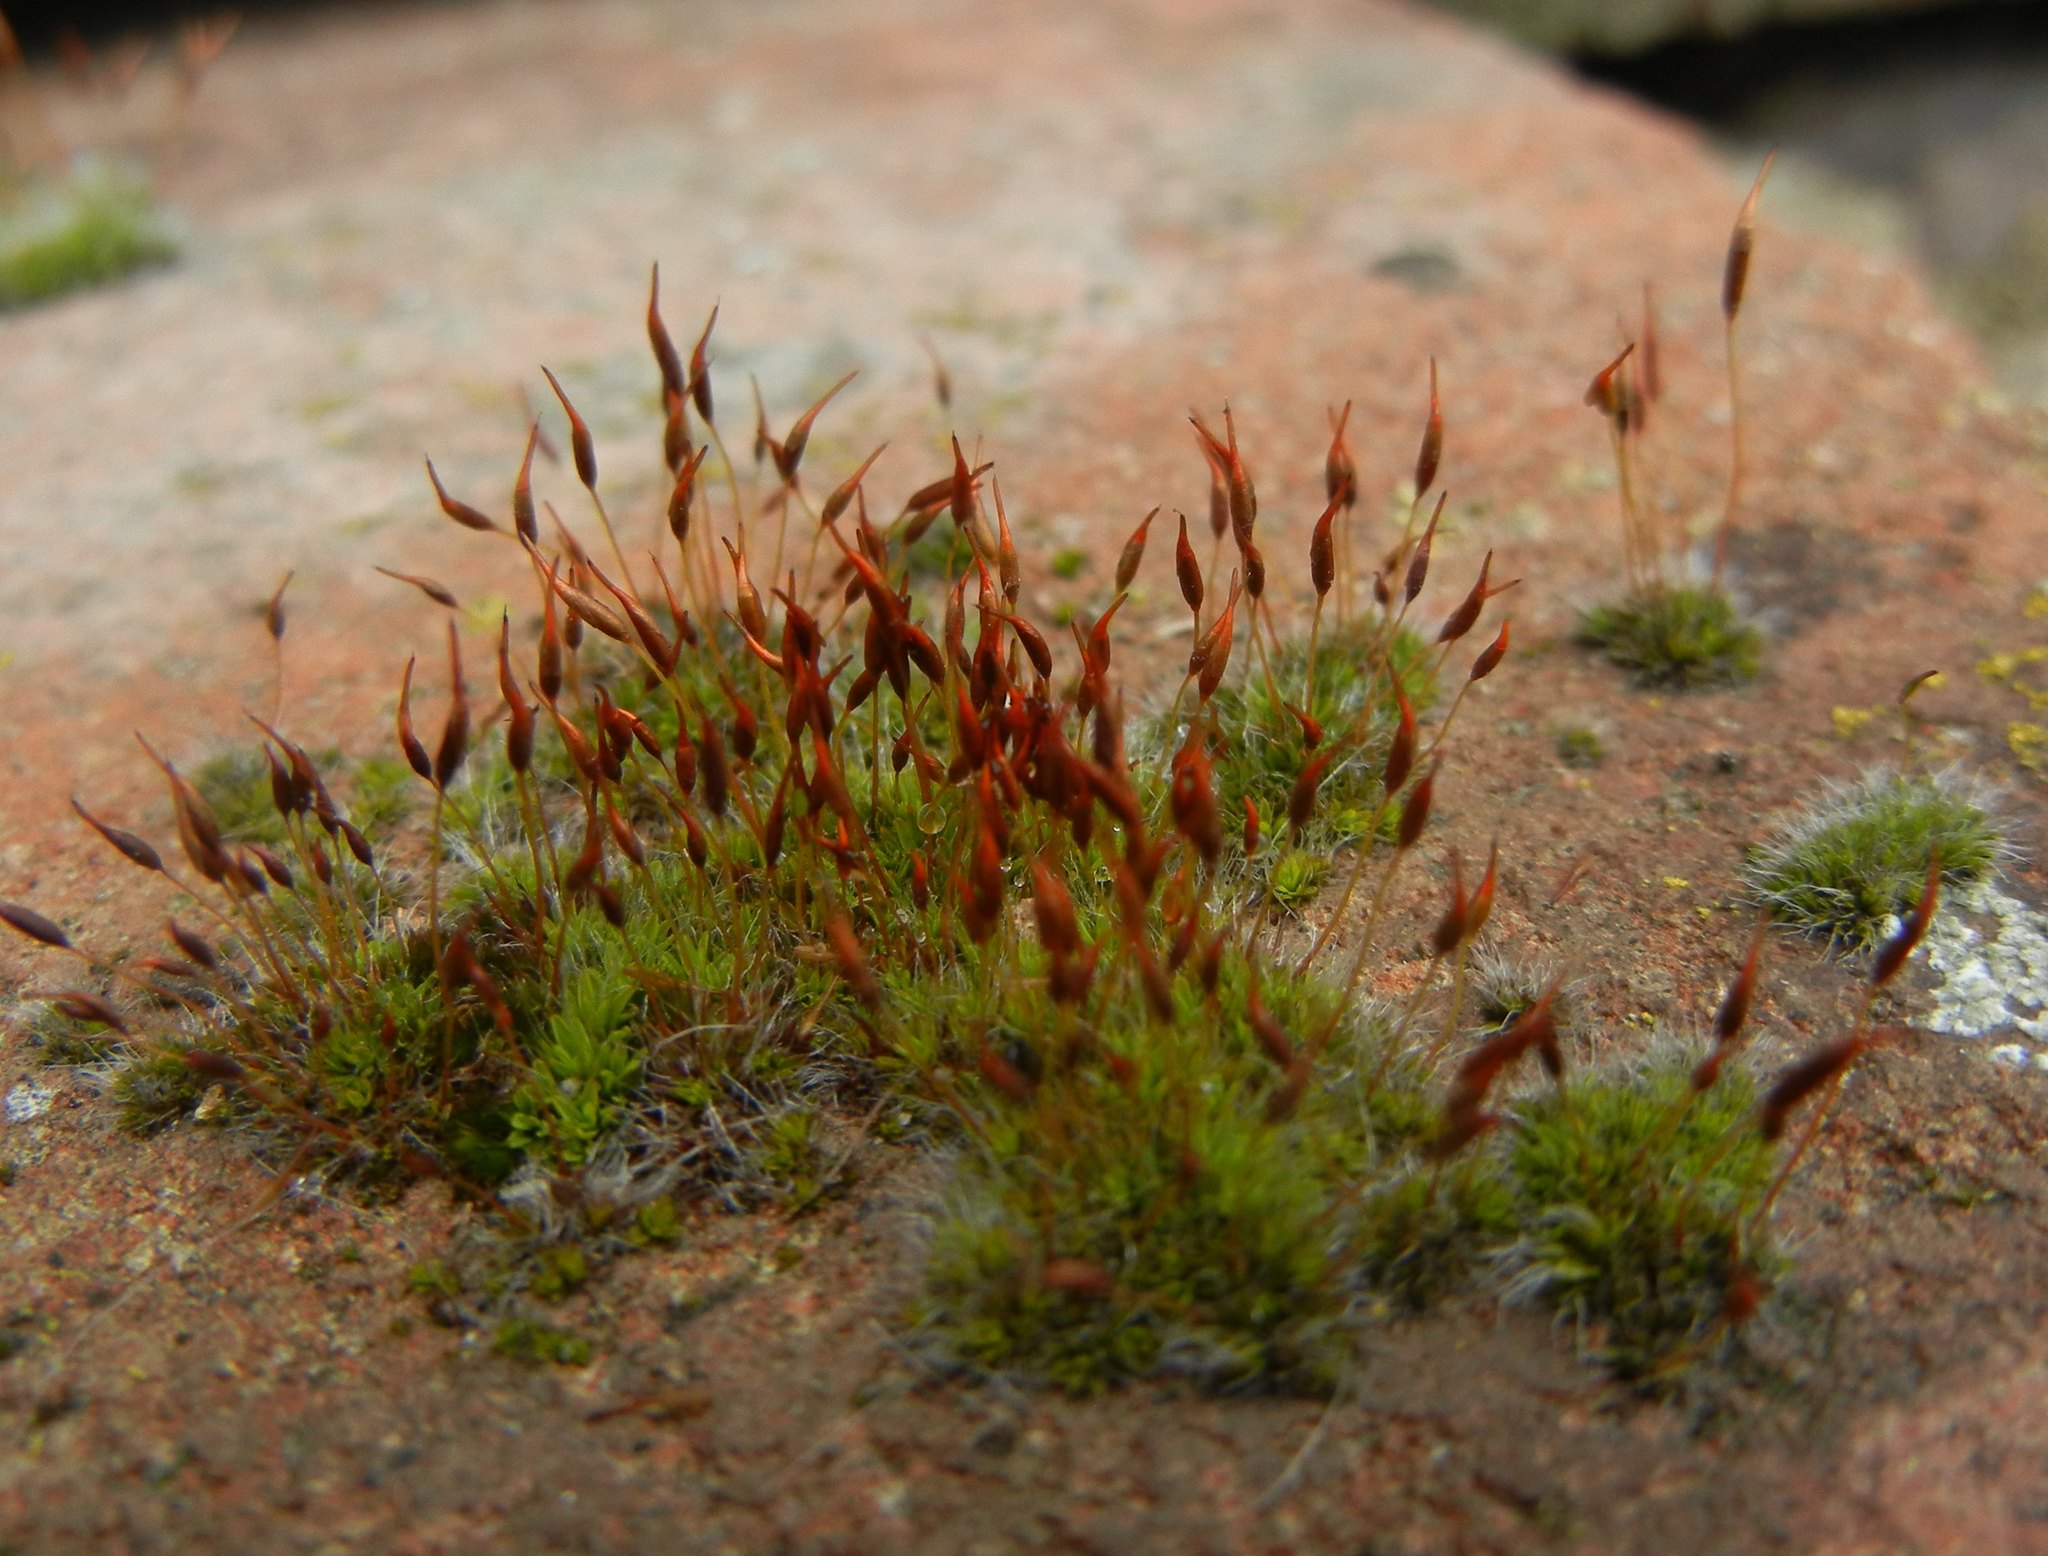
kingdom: Plantae
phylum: Bryophyta
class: Bryopsida
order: Pottiales
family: Pottiaceae
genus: Tortula
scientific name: Tortula muralis
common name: Wall screw-moss
